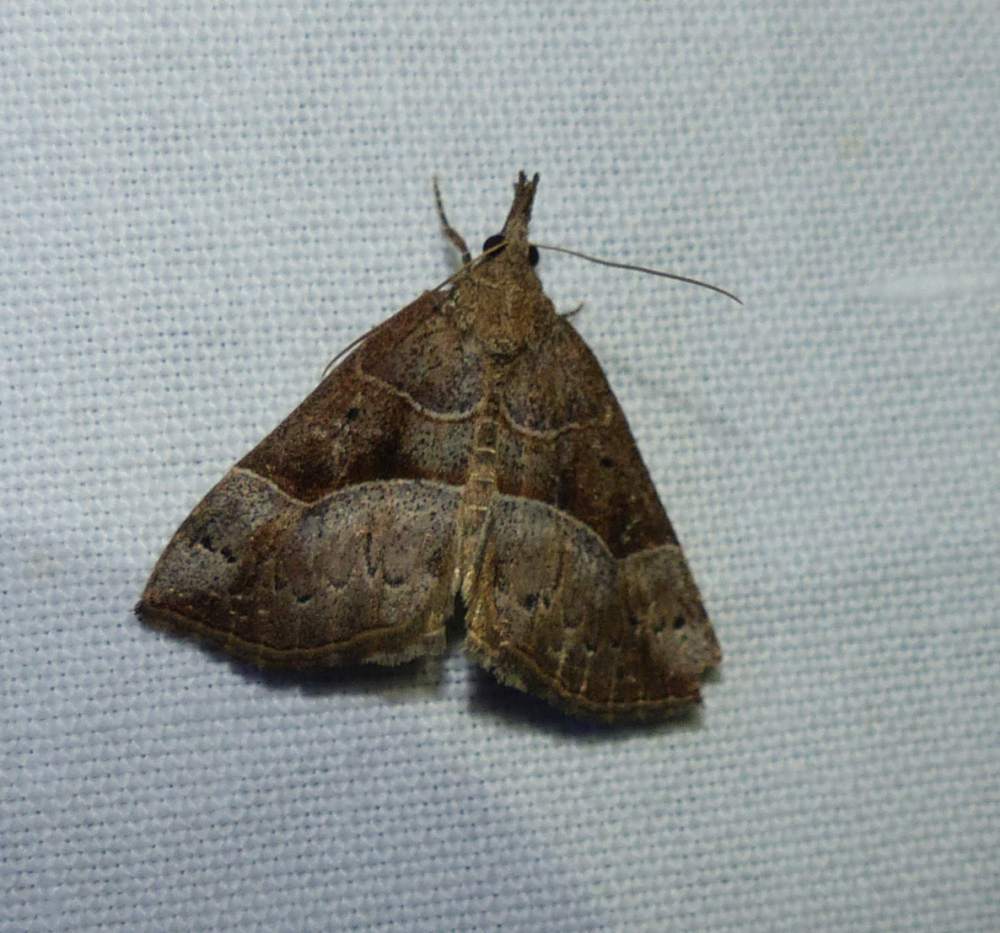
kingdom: Animalia
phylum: Arthropoda
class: Insecta
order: Lepidoptera
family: Erebidae
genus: Hypena
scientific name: Hypena deceptalis
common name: Deceptive snout
